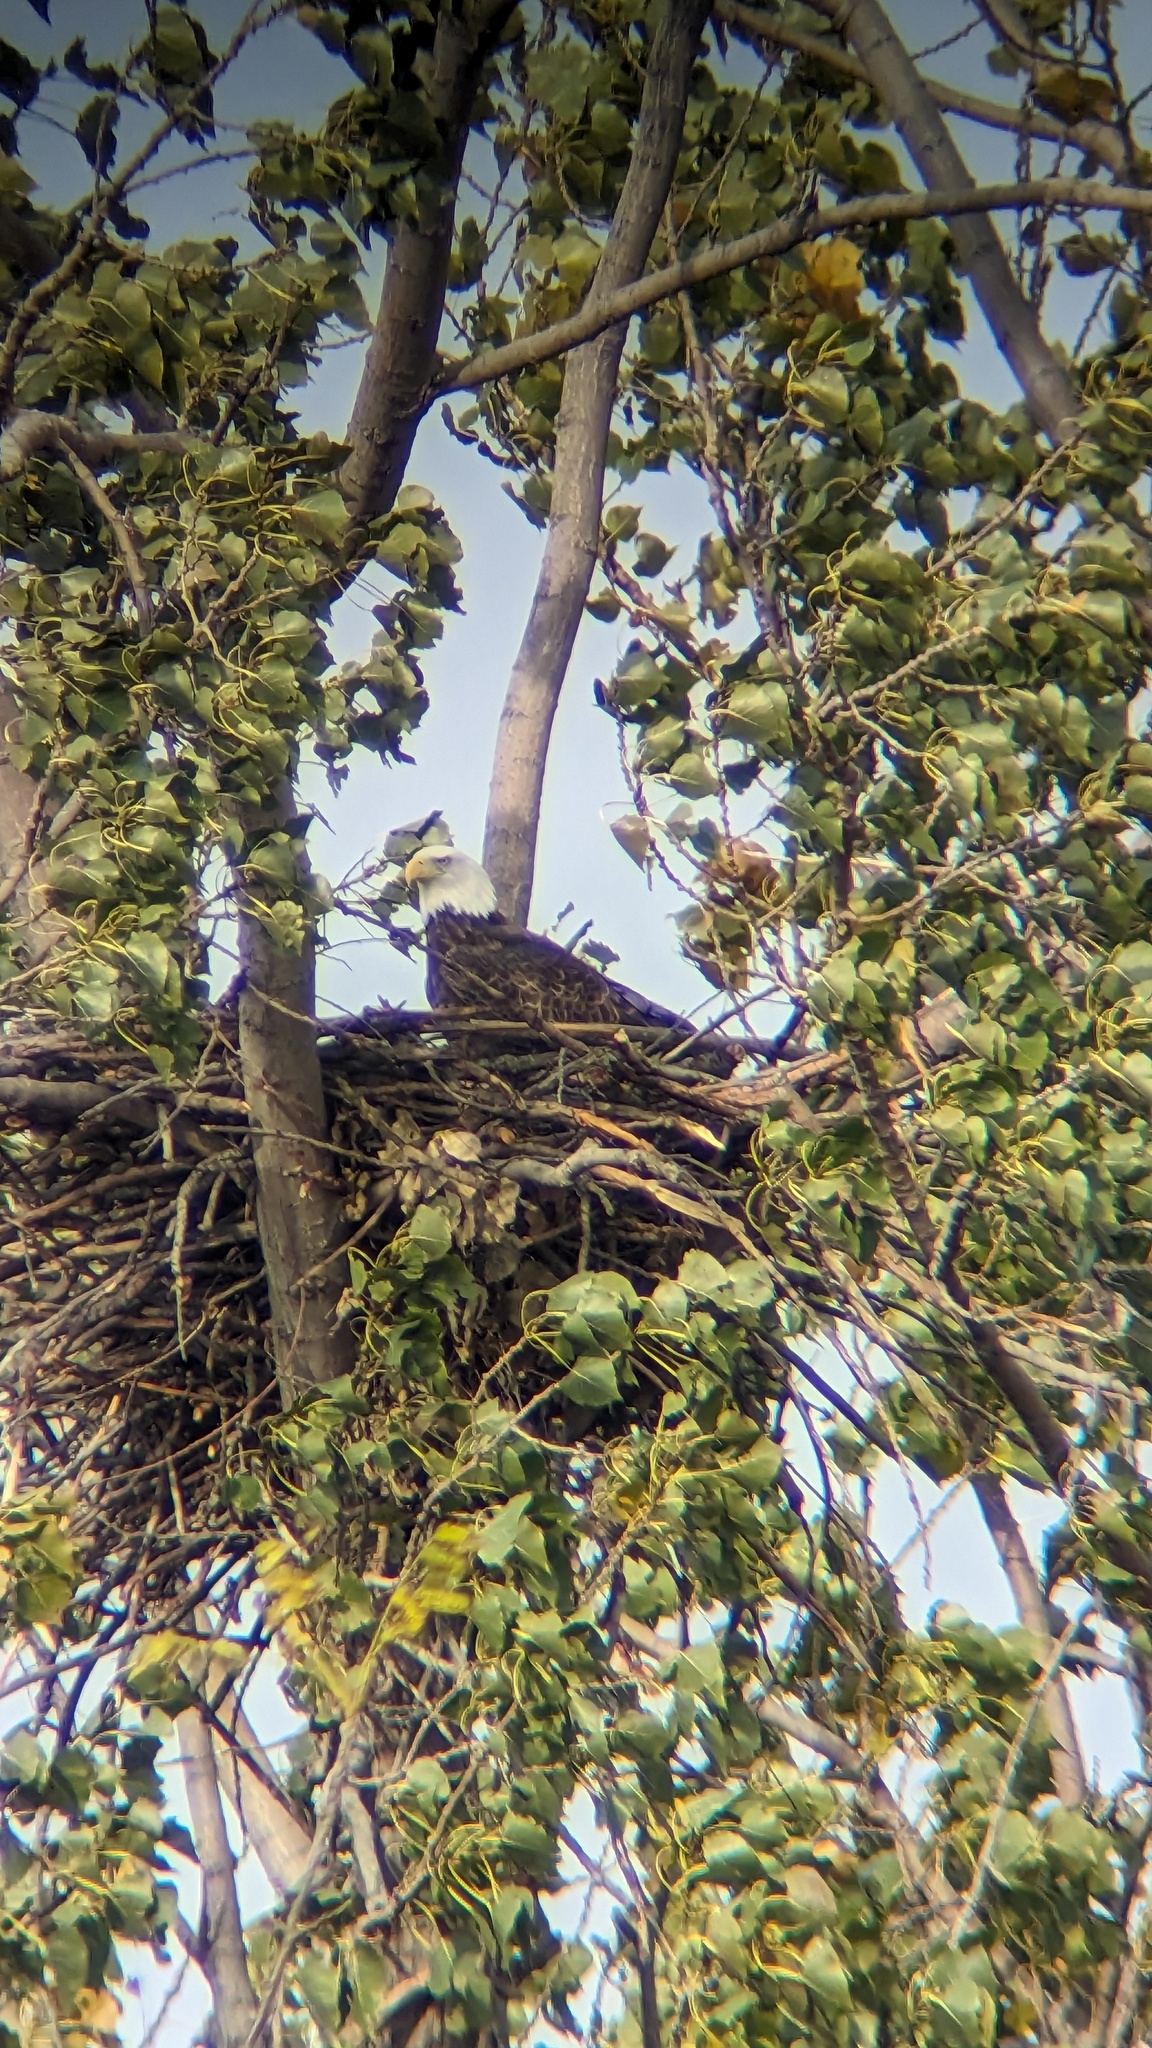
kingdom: Animalia
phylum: Chordata
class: Aves
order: Accipitriformes
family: Accipitridae
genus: Haliaeetus
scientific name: Haliaeetus leucocephalus
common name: Bald eagle
